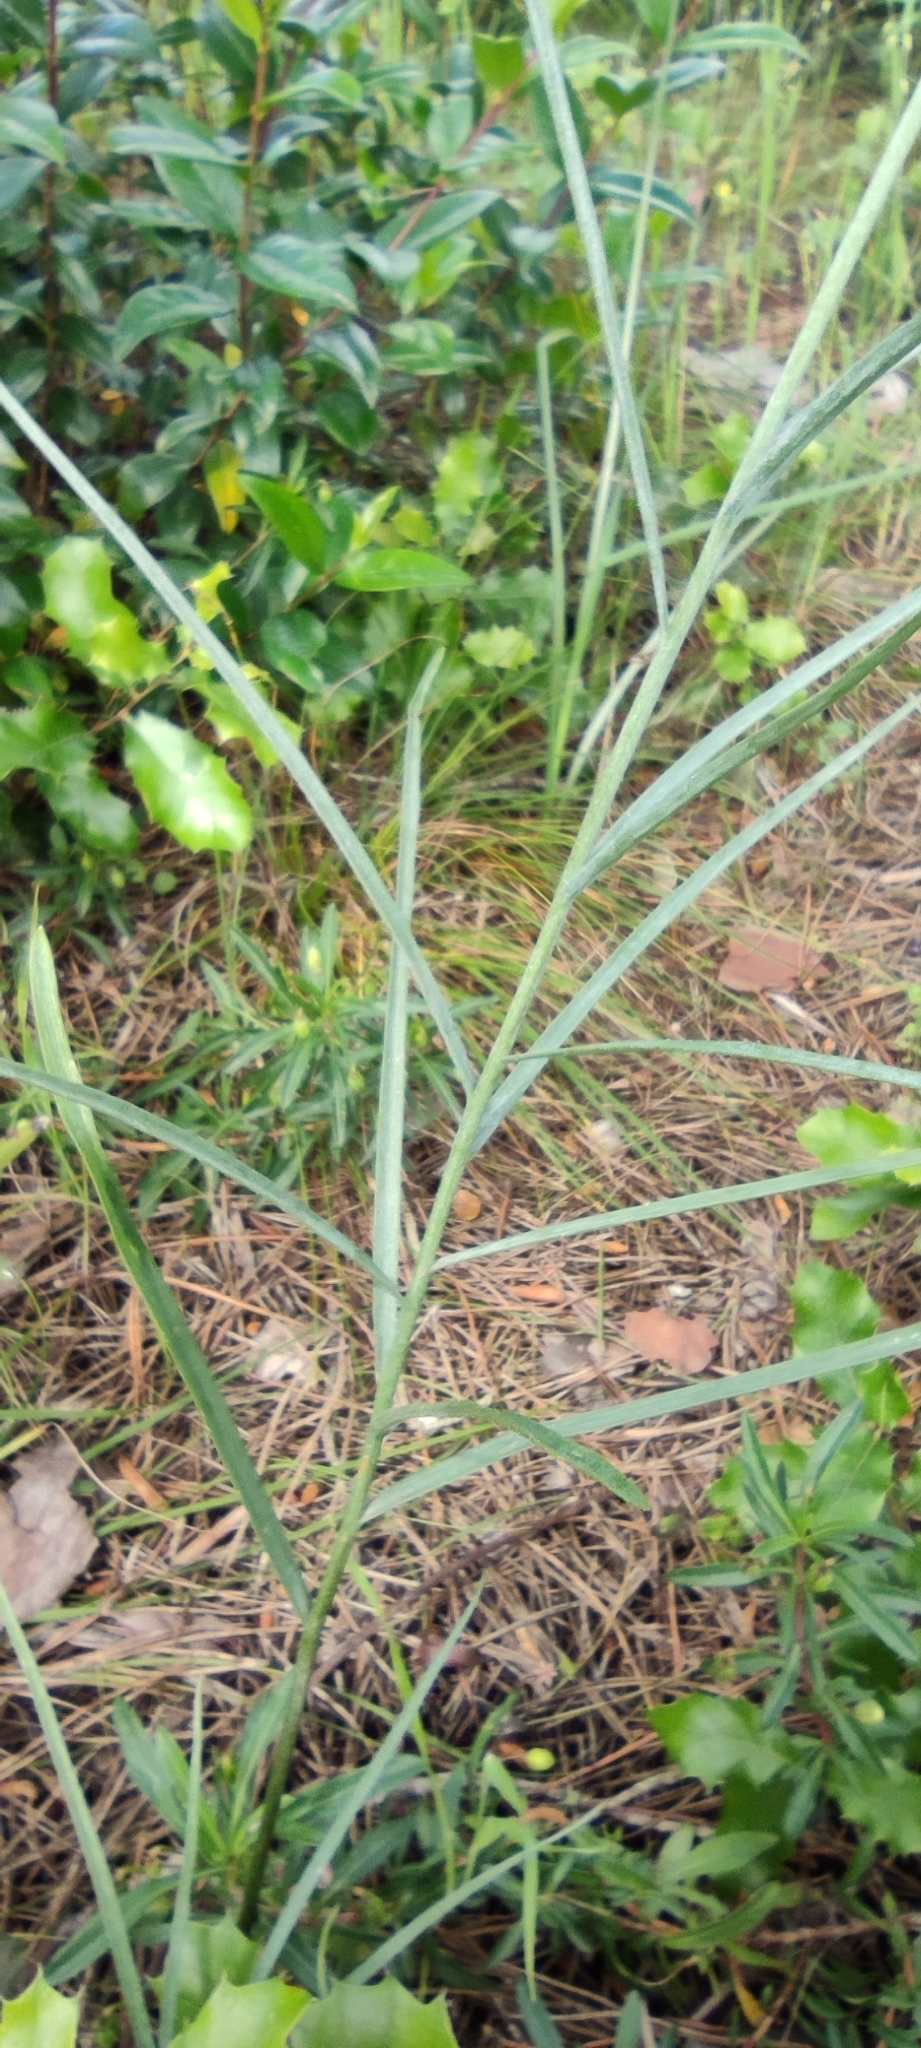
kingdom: Plantae
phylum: Tracheophyta
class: Liliopsida
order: Liliales
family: Liliaceae
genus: Fritillaria
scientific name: Fritillaria lusitanica
